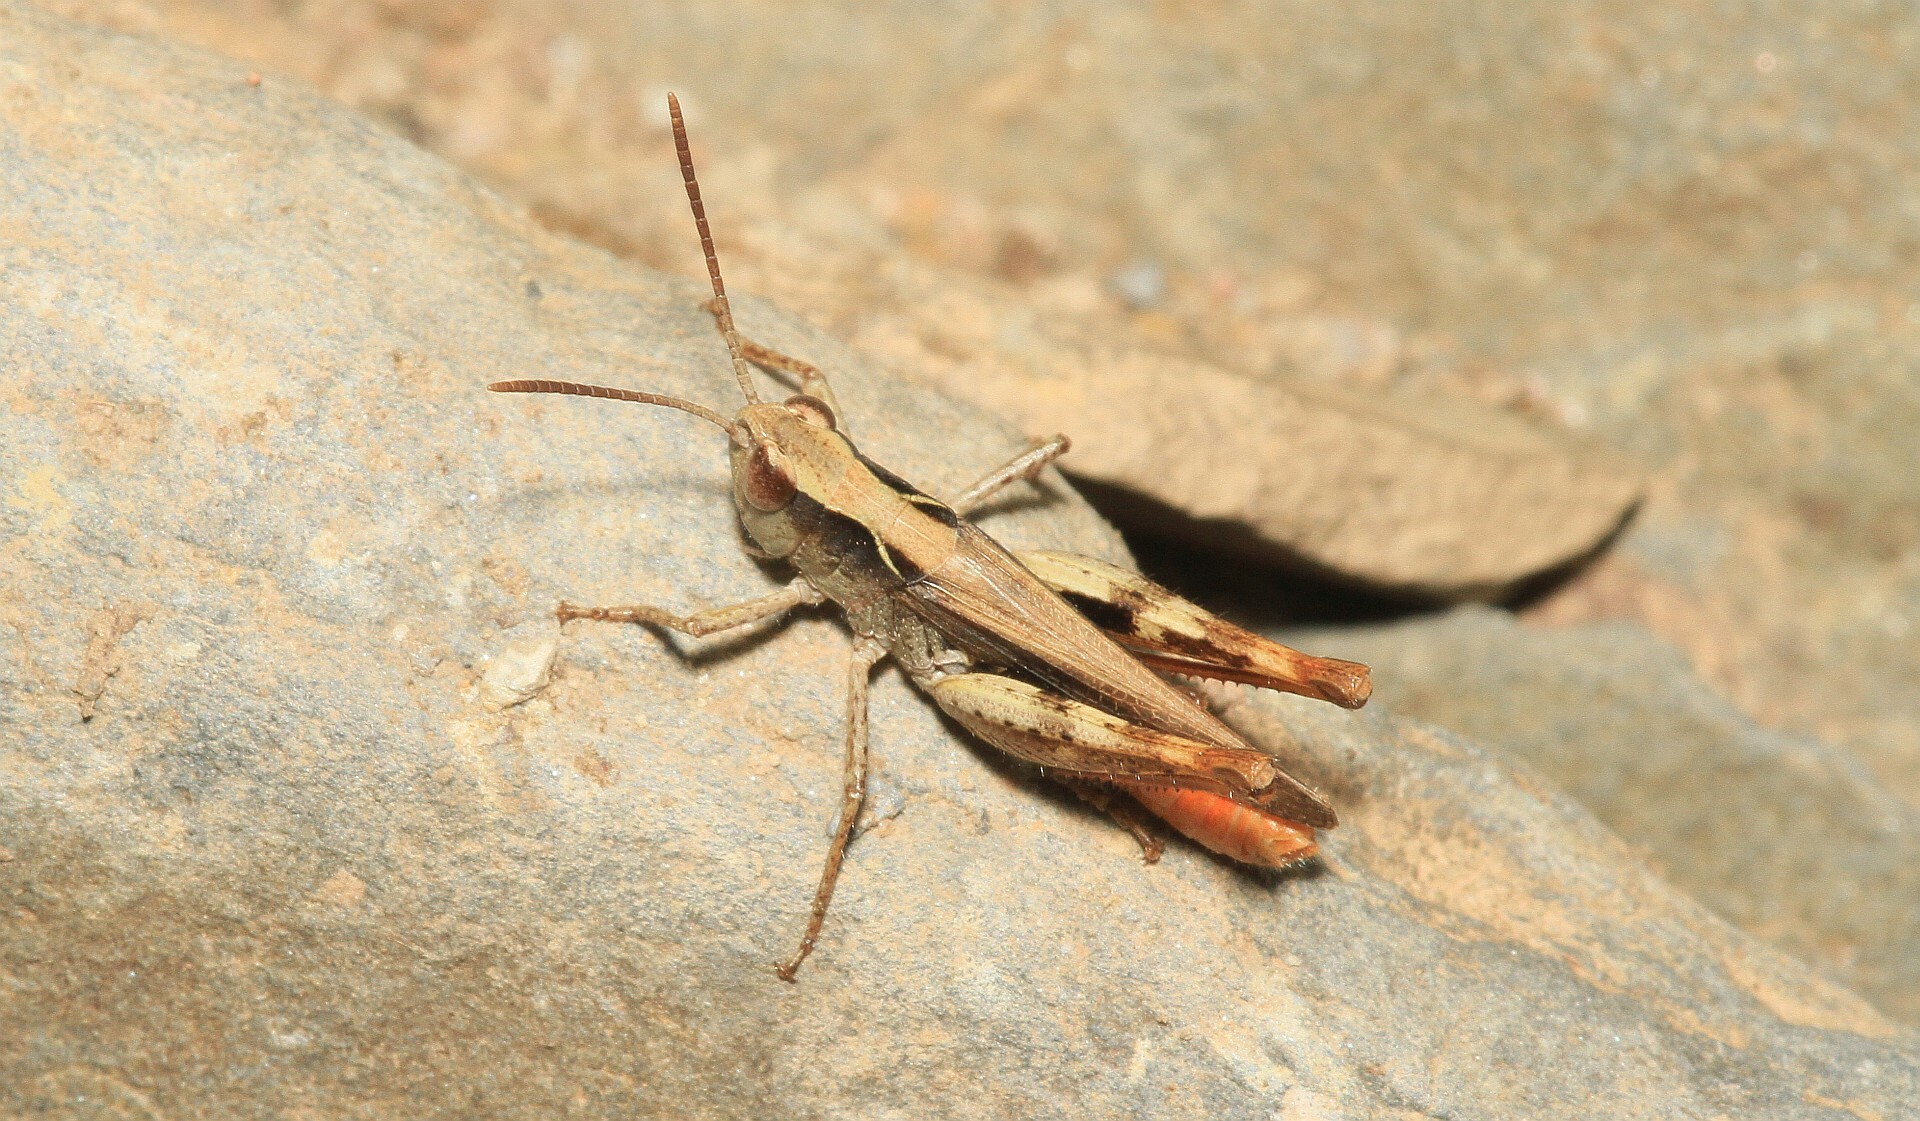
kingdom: Animalia
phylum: Arthropoda
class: Insecta
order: Orthoptera
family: Acrididae
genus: Chorthippus
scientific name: Chorthippus vagans
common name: Heath grasshopper
